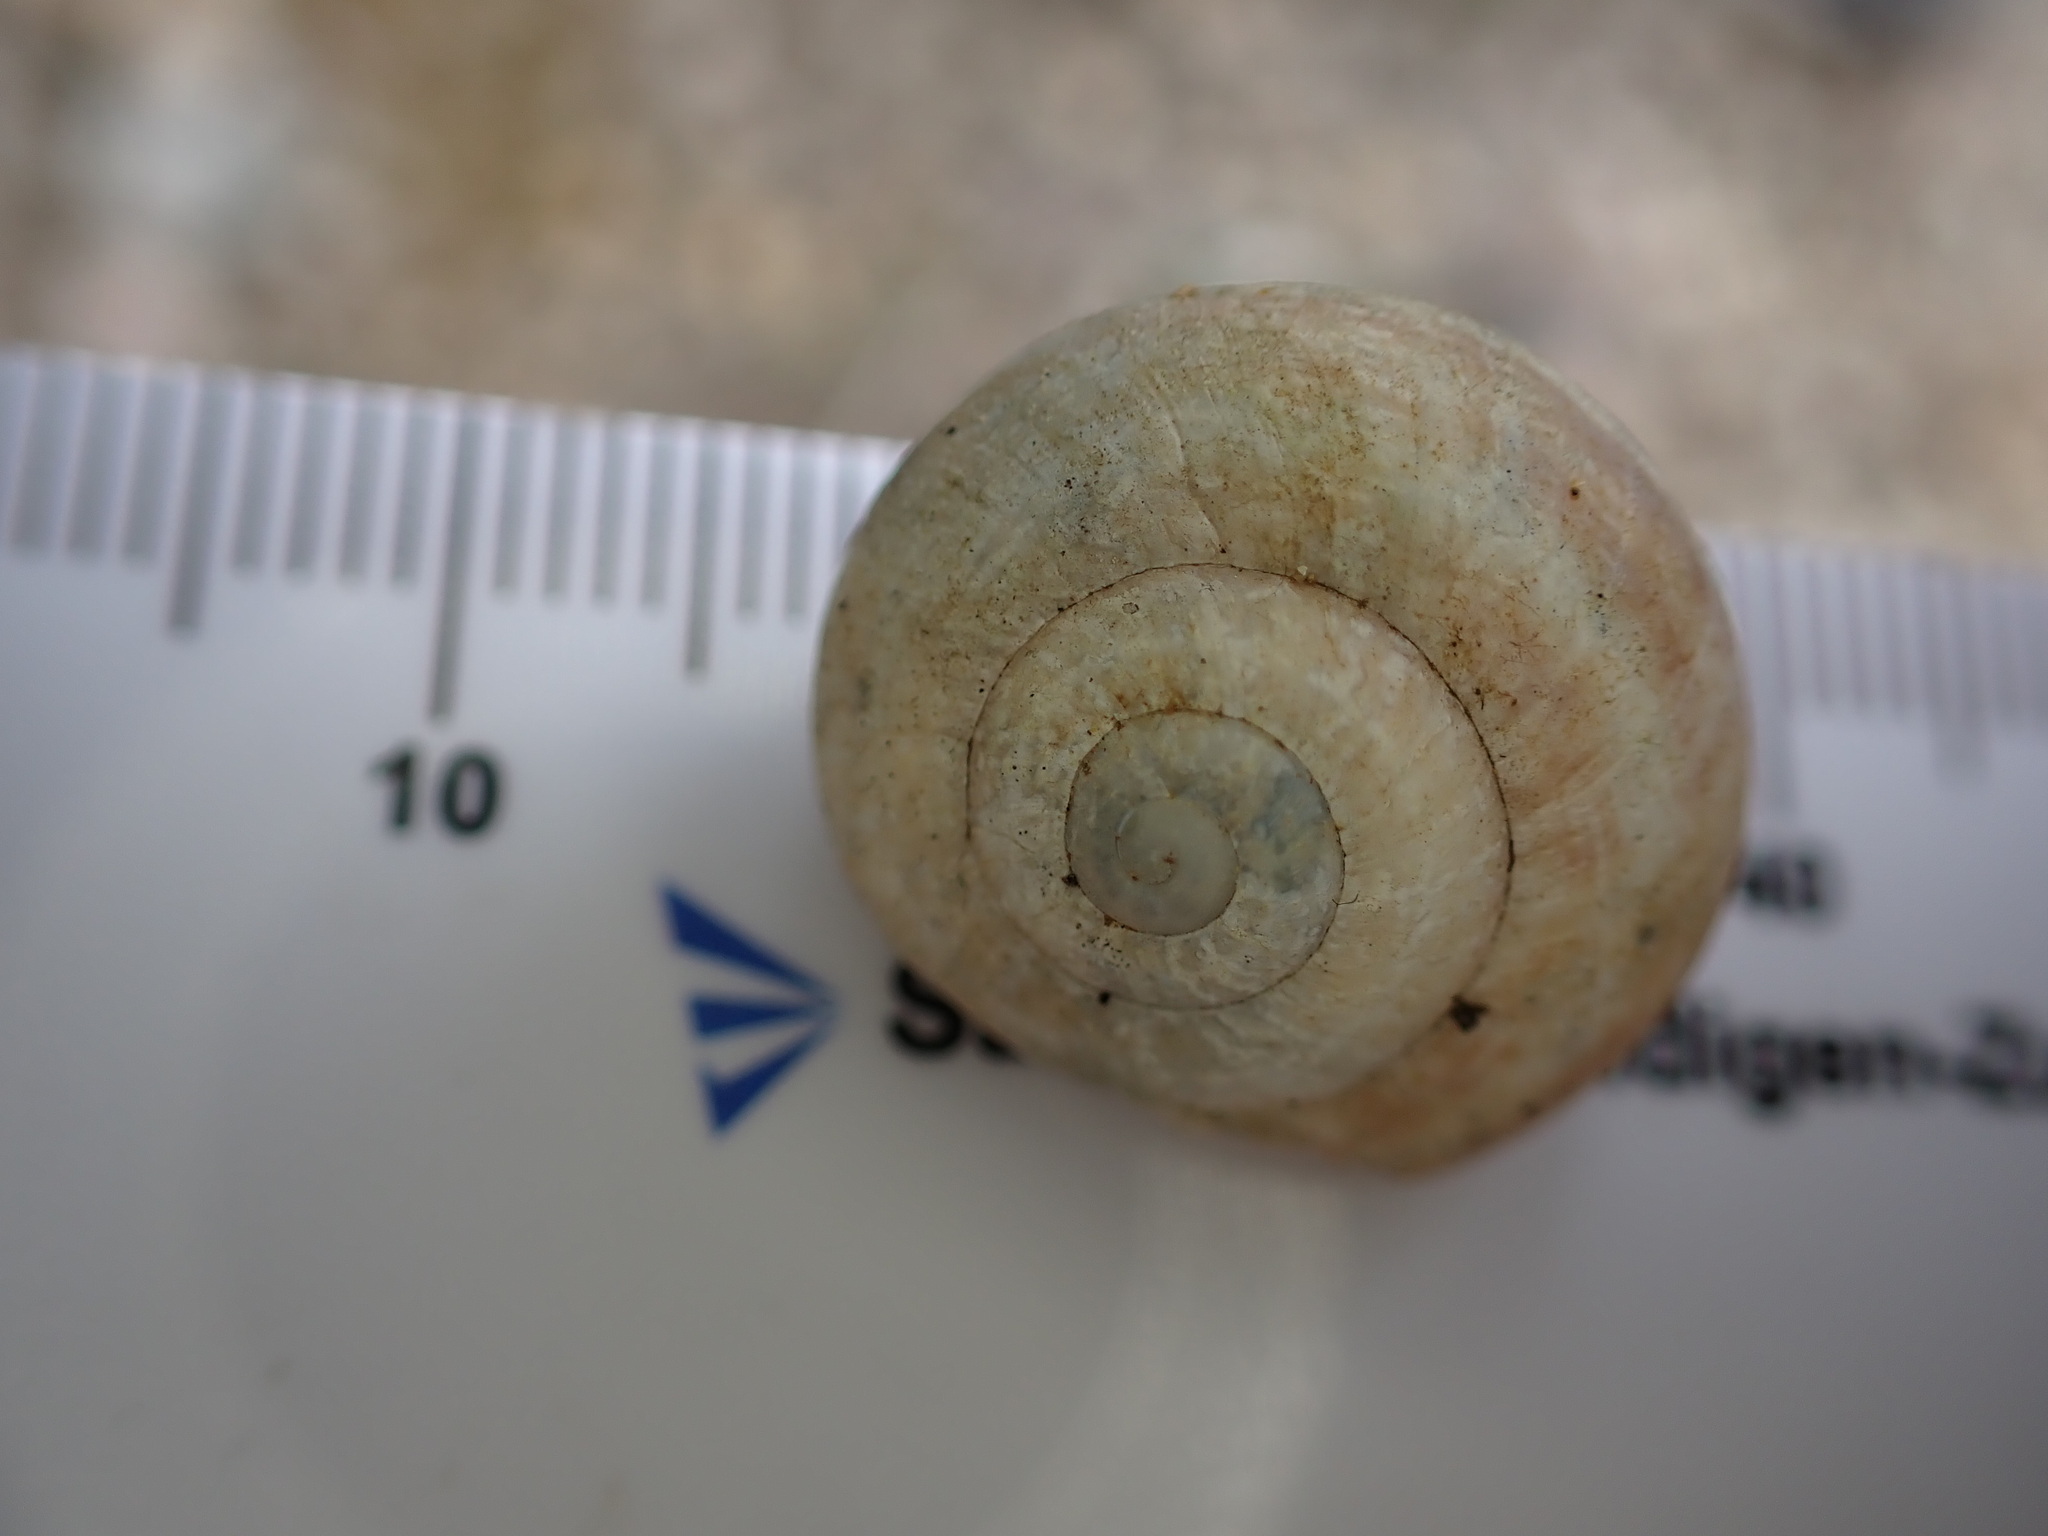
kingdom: Animalia
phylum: Mollusca
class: Gastropoda
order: Stylommatophora
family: Helicidae
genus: Eobania
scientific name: Eobania vermiculata
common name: Chocolateband snail
